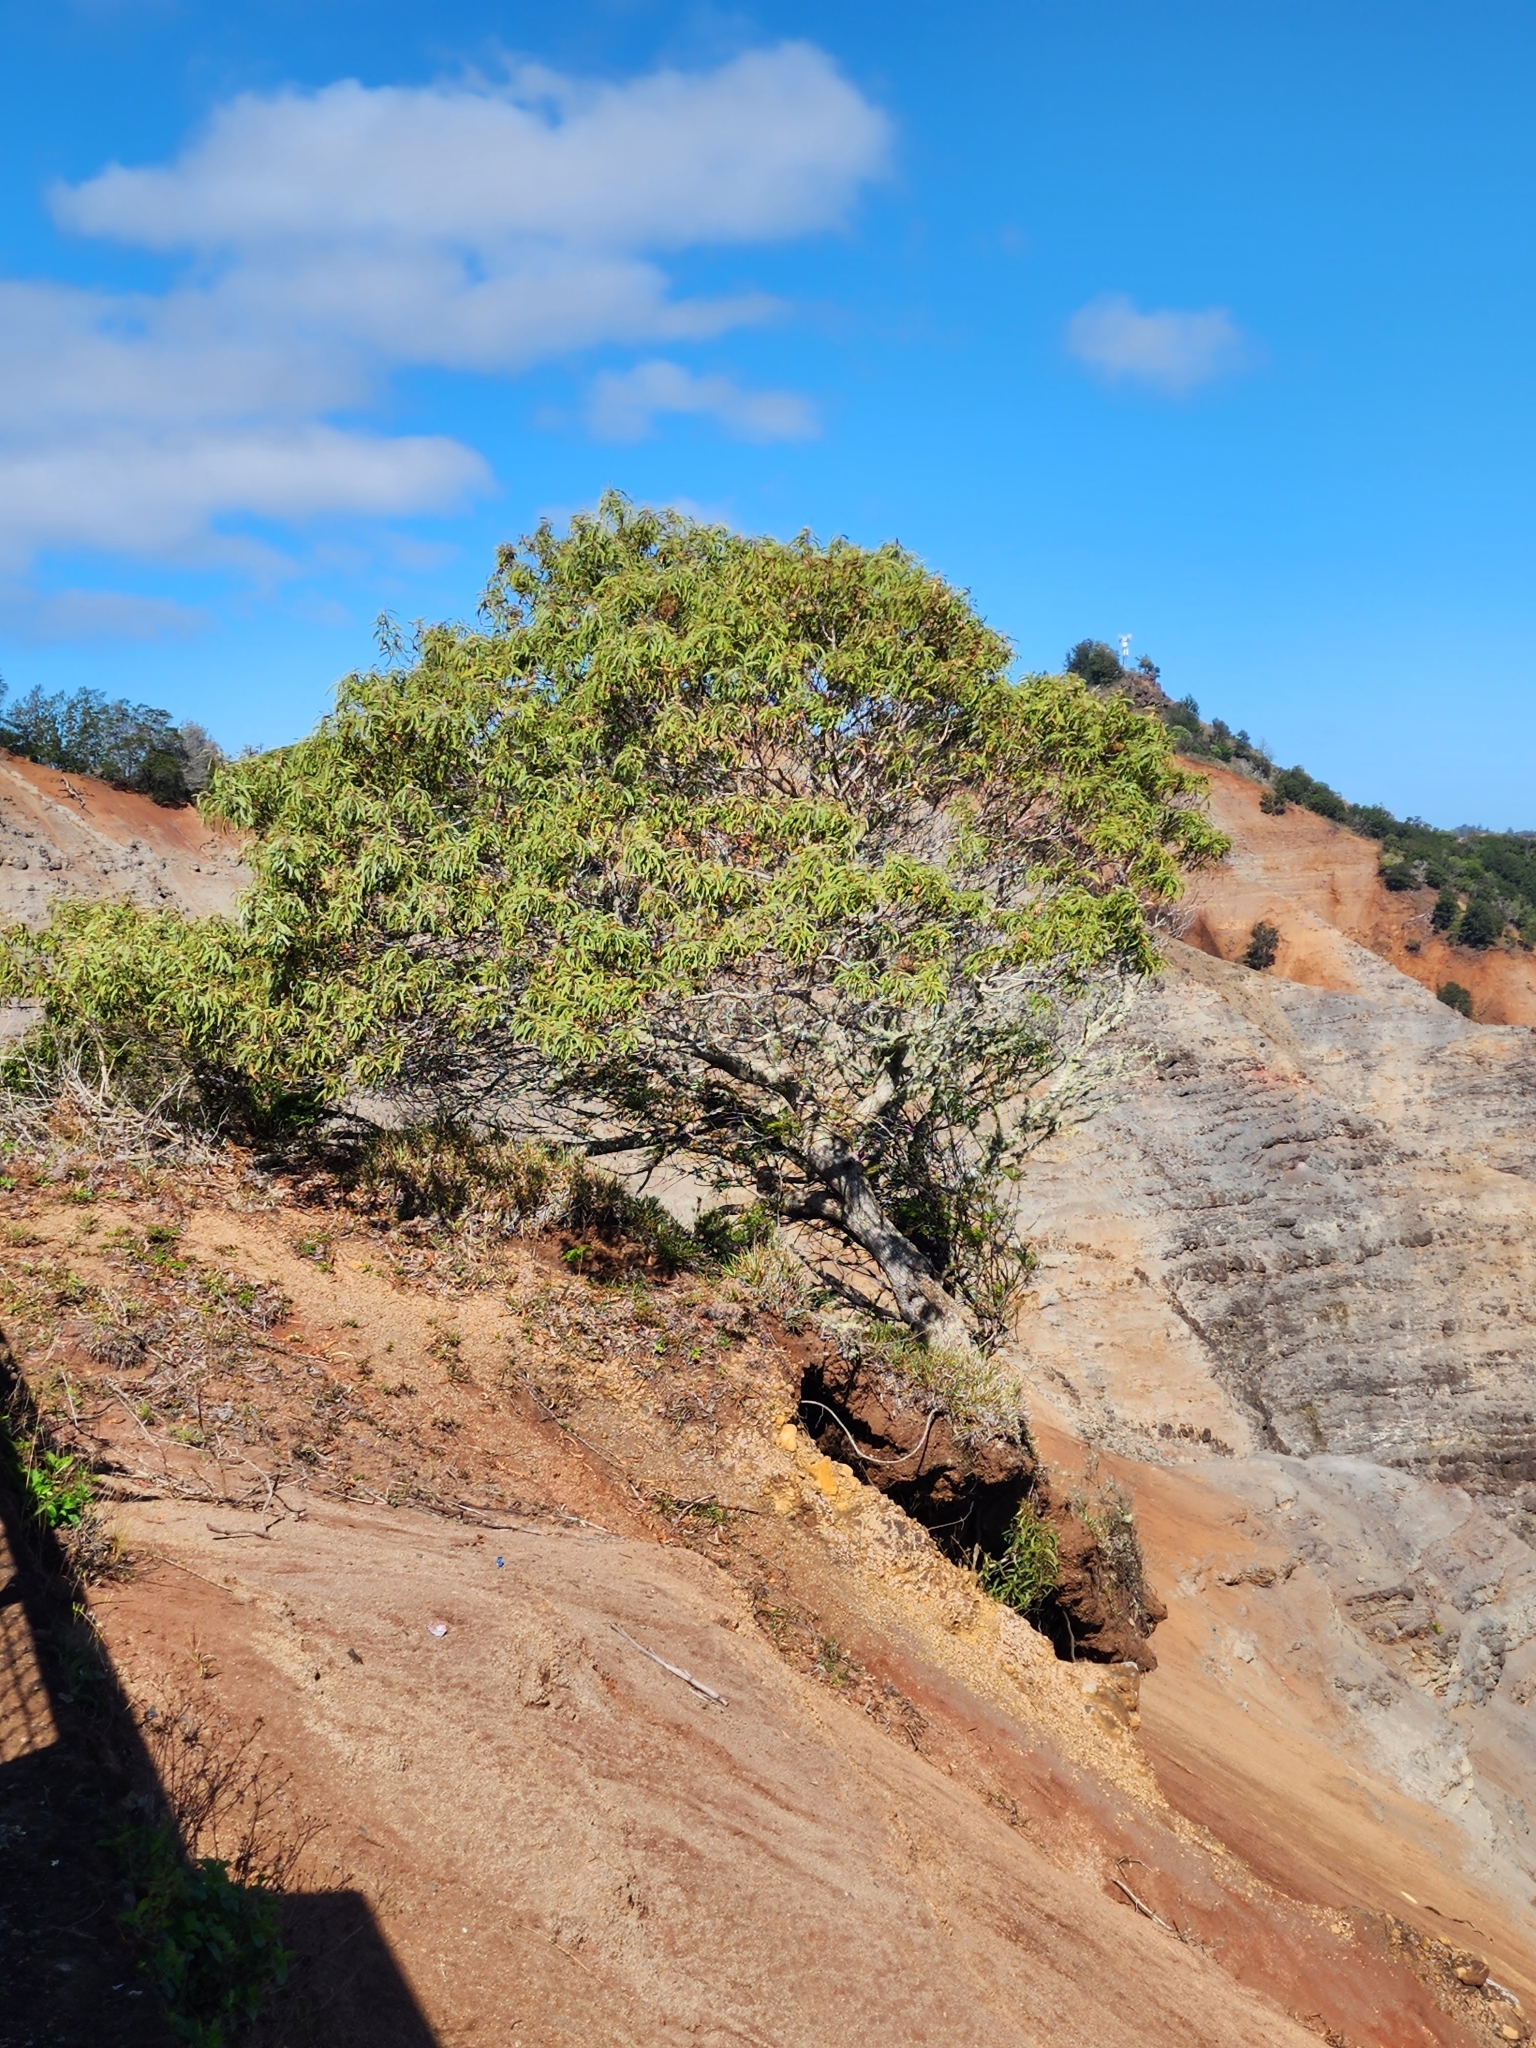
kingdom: Plantae
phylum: Tracheophyta
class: Magnoliopsida
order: Fabales
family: Fabaceae
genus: Acacia
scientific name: Acacia koa
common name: Gray koa
